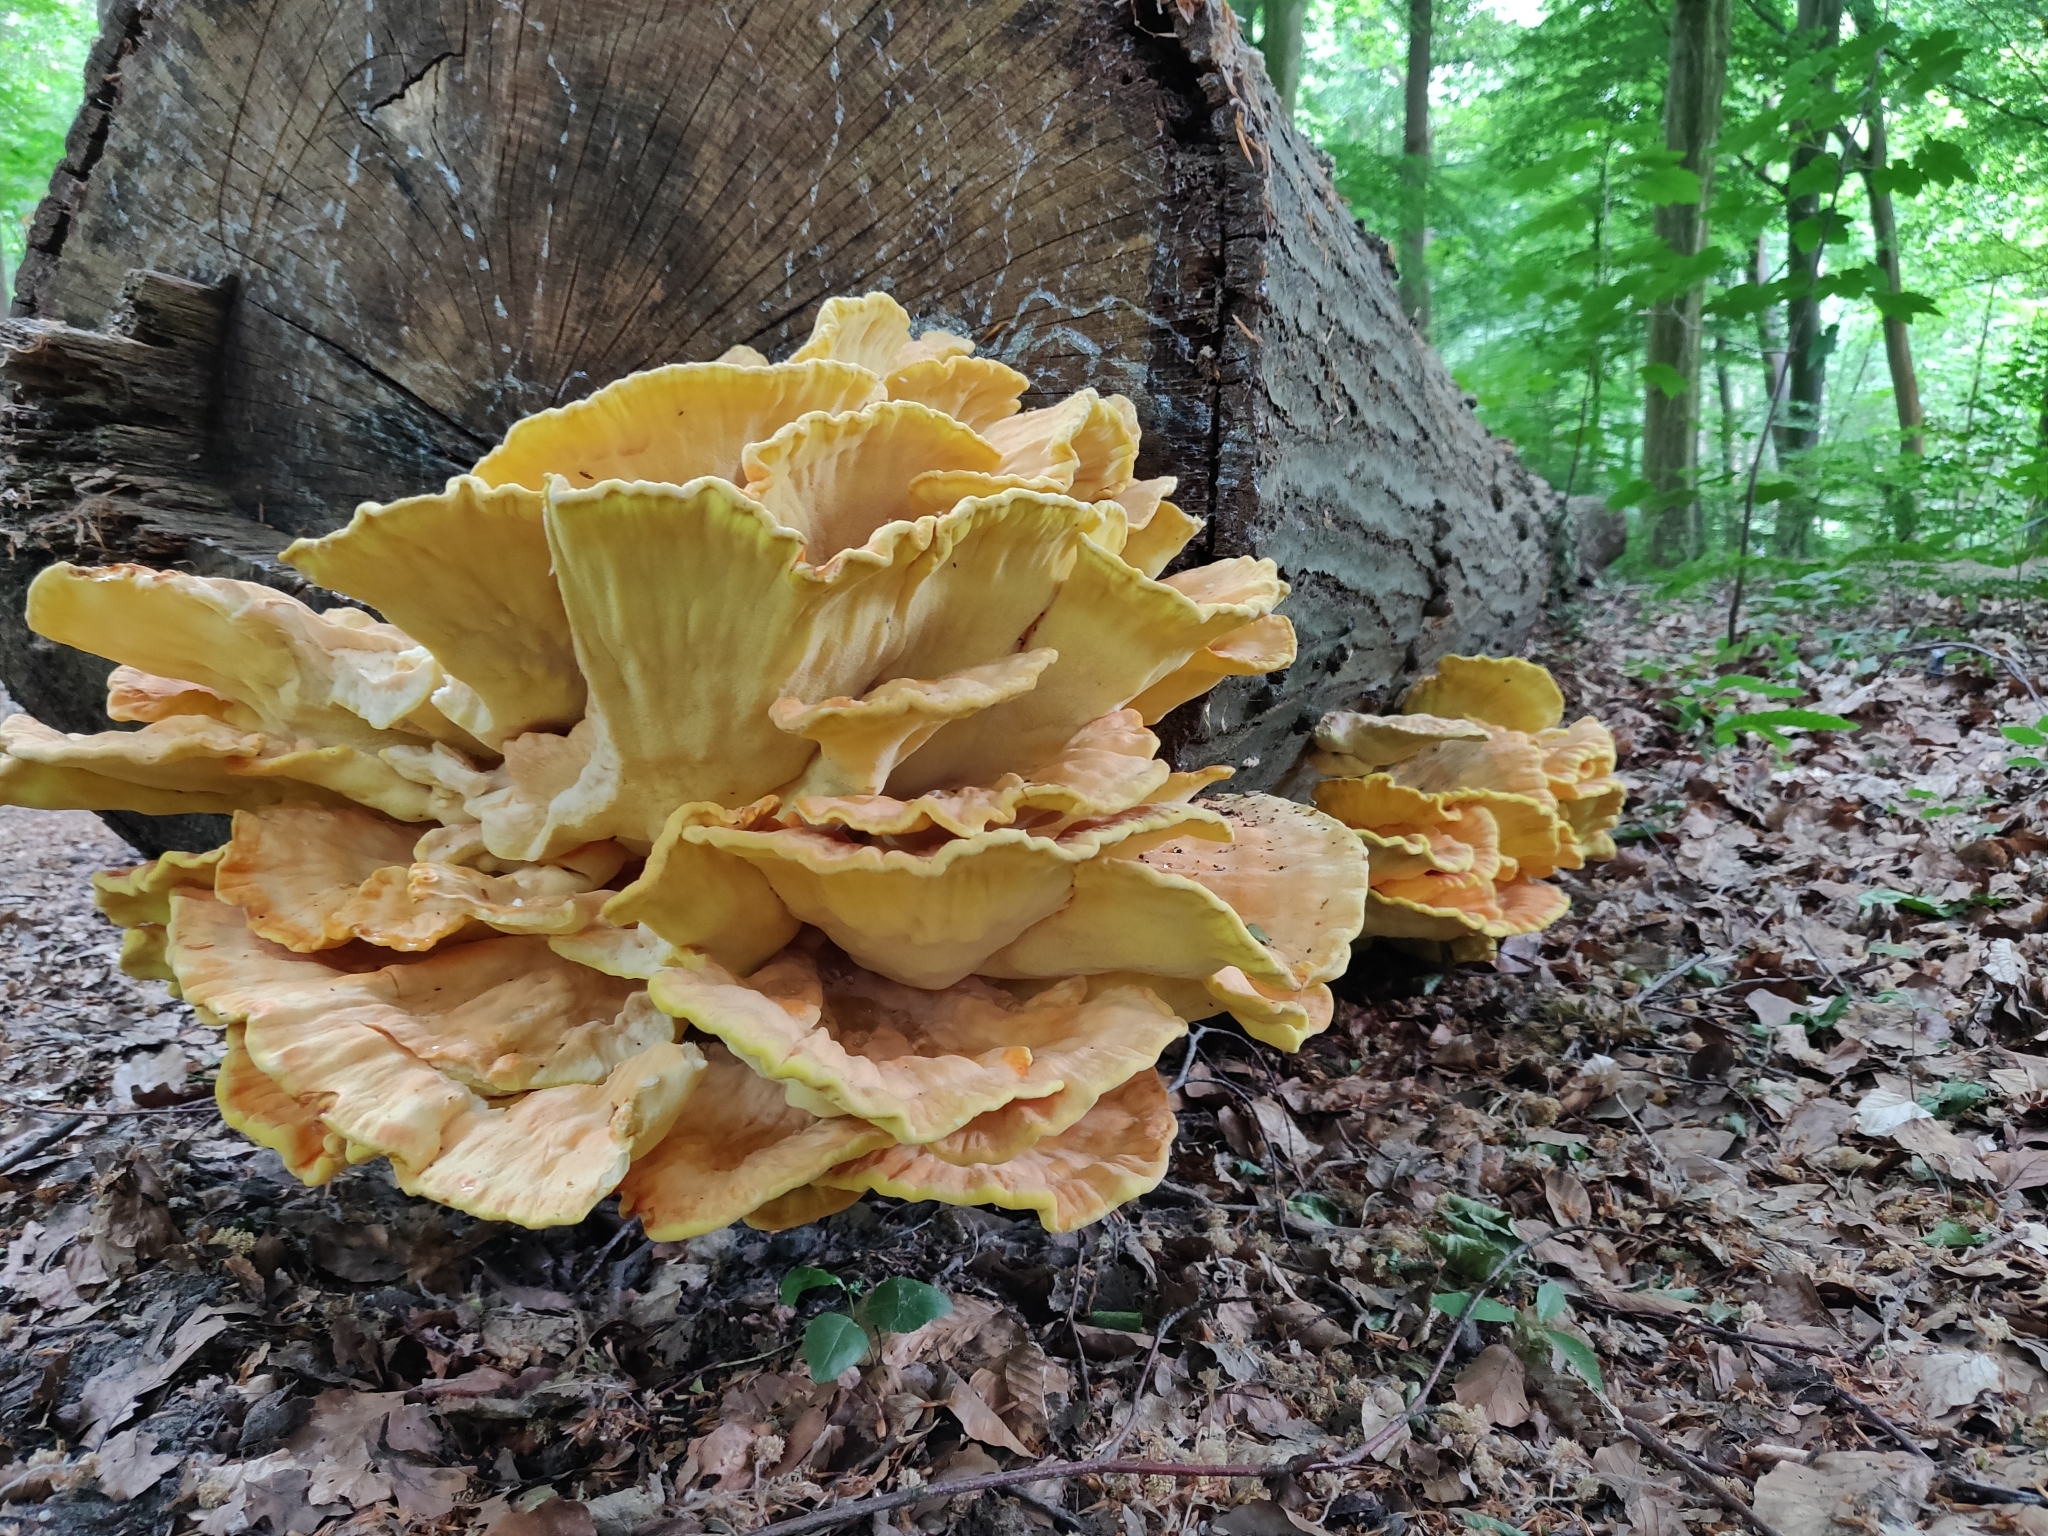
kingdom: Fungi
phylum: Basidiomycota
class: Agaricomycetes
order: Polyporales
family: Laetiporaceae
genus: Laetiporus
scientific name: Laetiporus sulphureus
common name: Chicken of the woods
